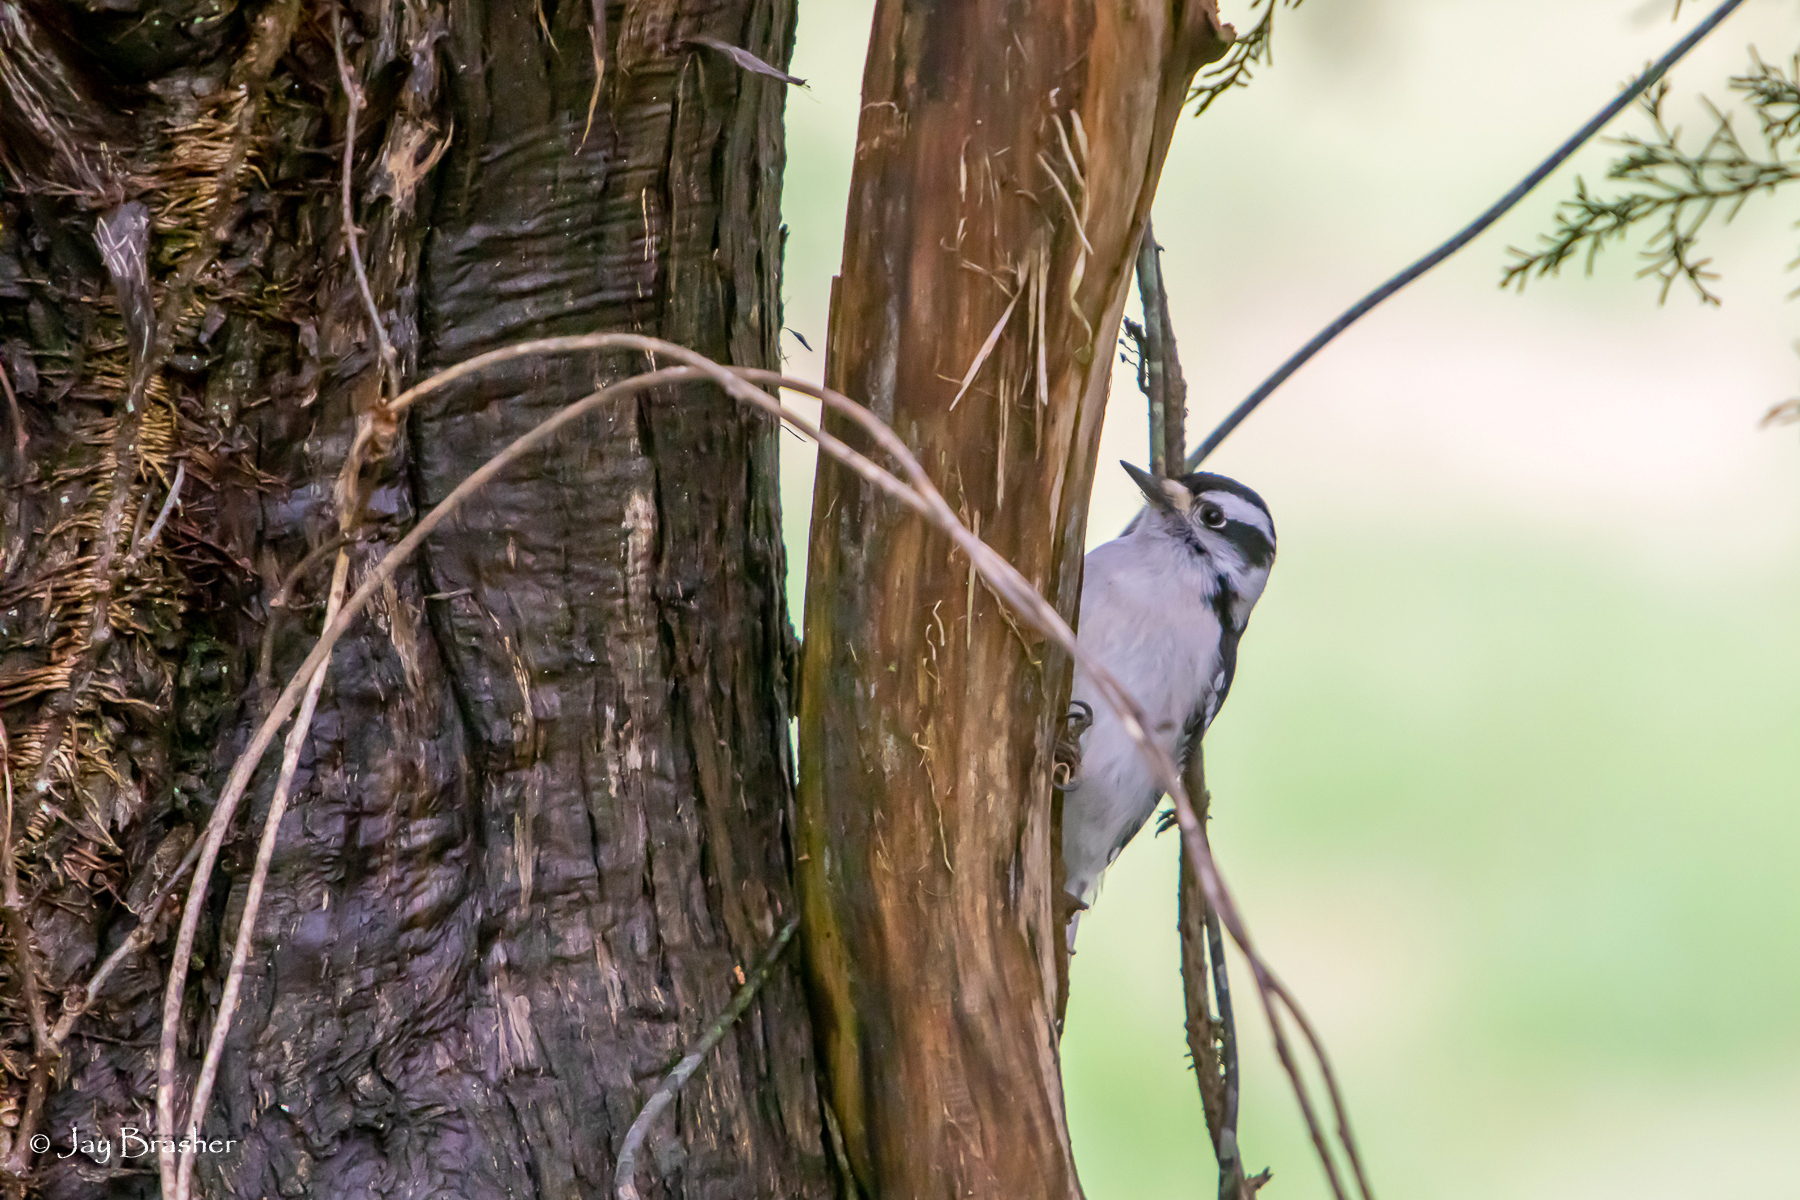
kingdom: Animalia
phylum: Chordata
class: Aves
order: Piciformes
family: Picidae
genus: Dryobates
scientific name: Dryobates pubescens
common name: Downy woodpecker
